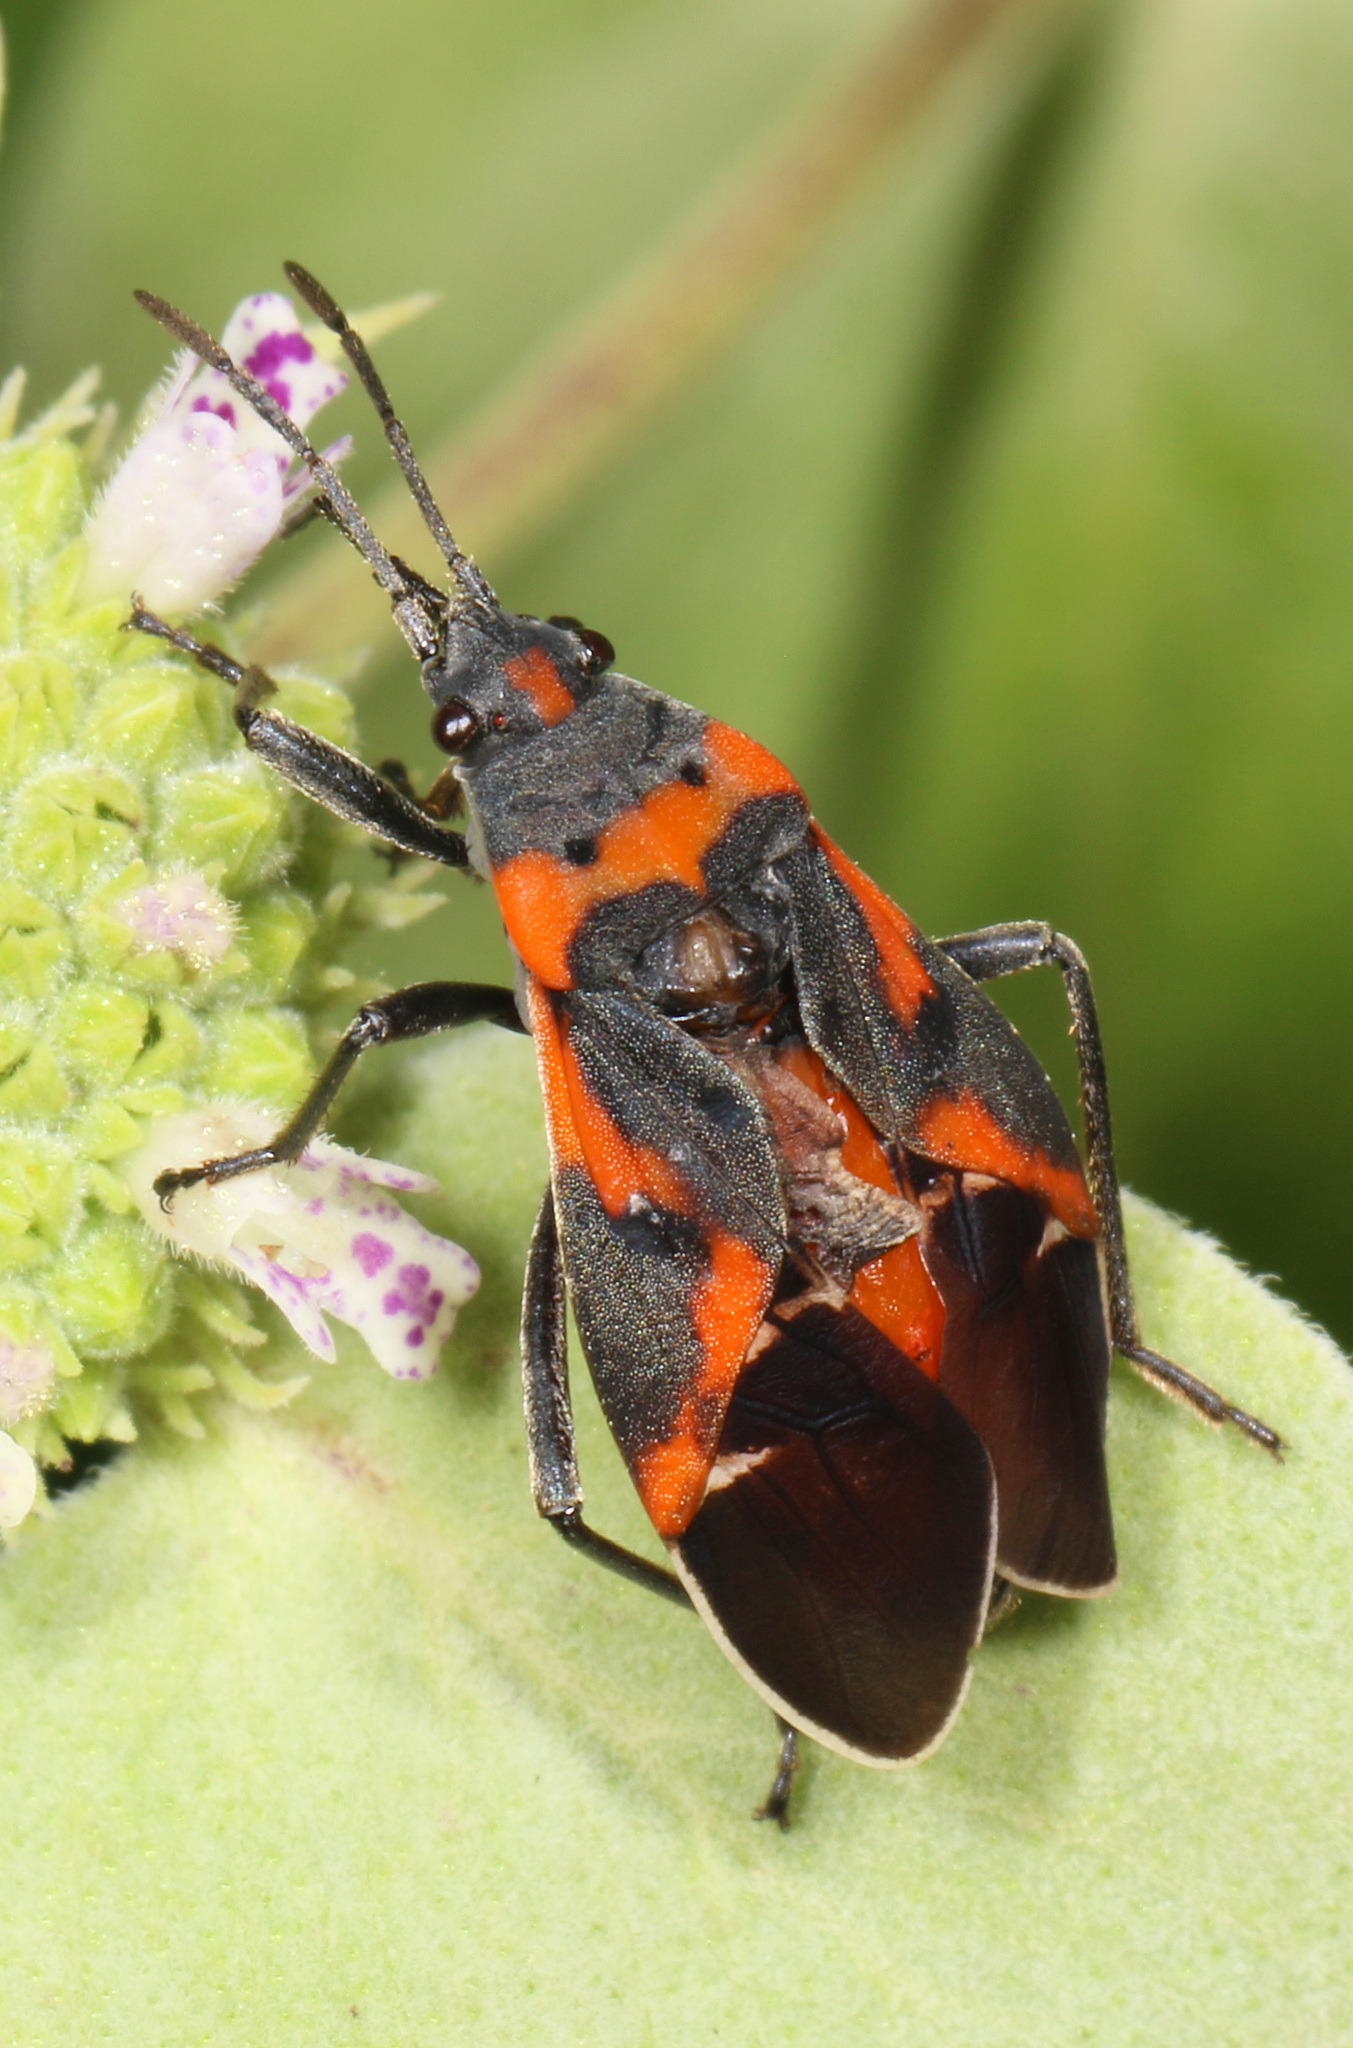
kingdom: Animalia
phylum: Arthropoda
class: Insecta
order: Hemiptera
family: Lygaeidae
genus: Lygaeus
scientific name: Lygaeus kalmii
